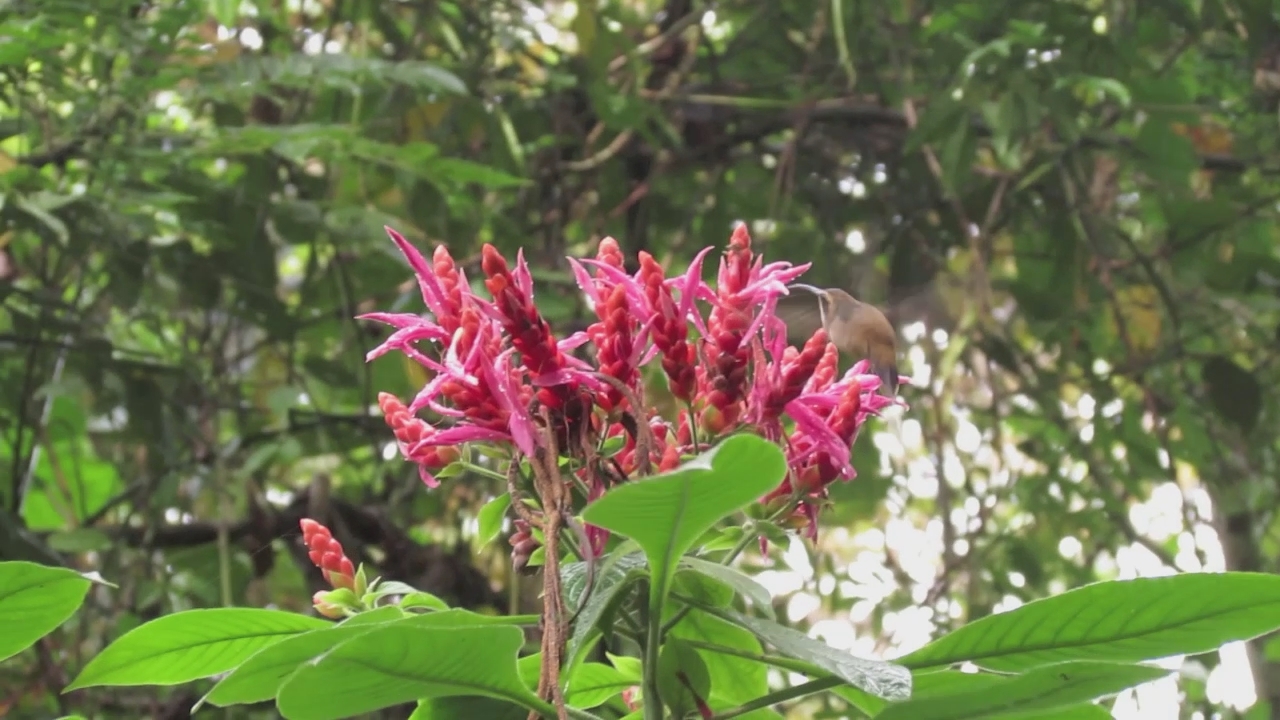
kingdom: Animalia
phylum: Chordata
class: Aves
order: Apodiformes
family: Trochilidae
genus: Phaethornis
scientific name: Phaethornis longirostris
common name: Long-billed hermit
